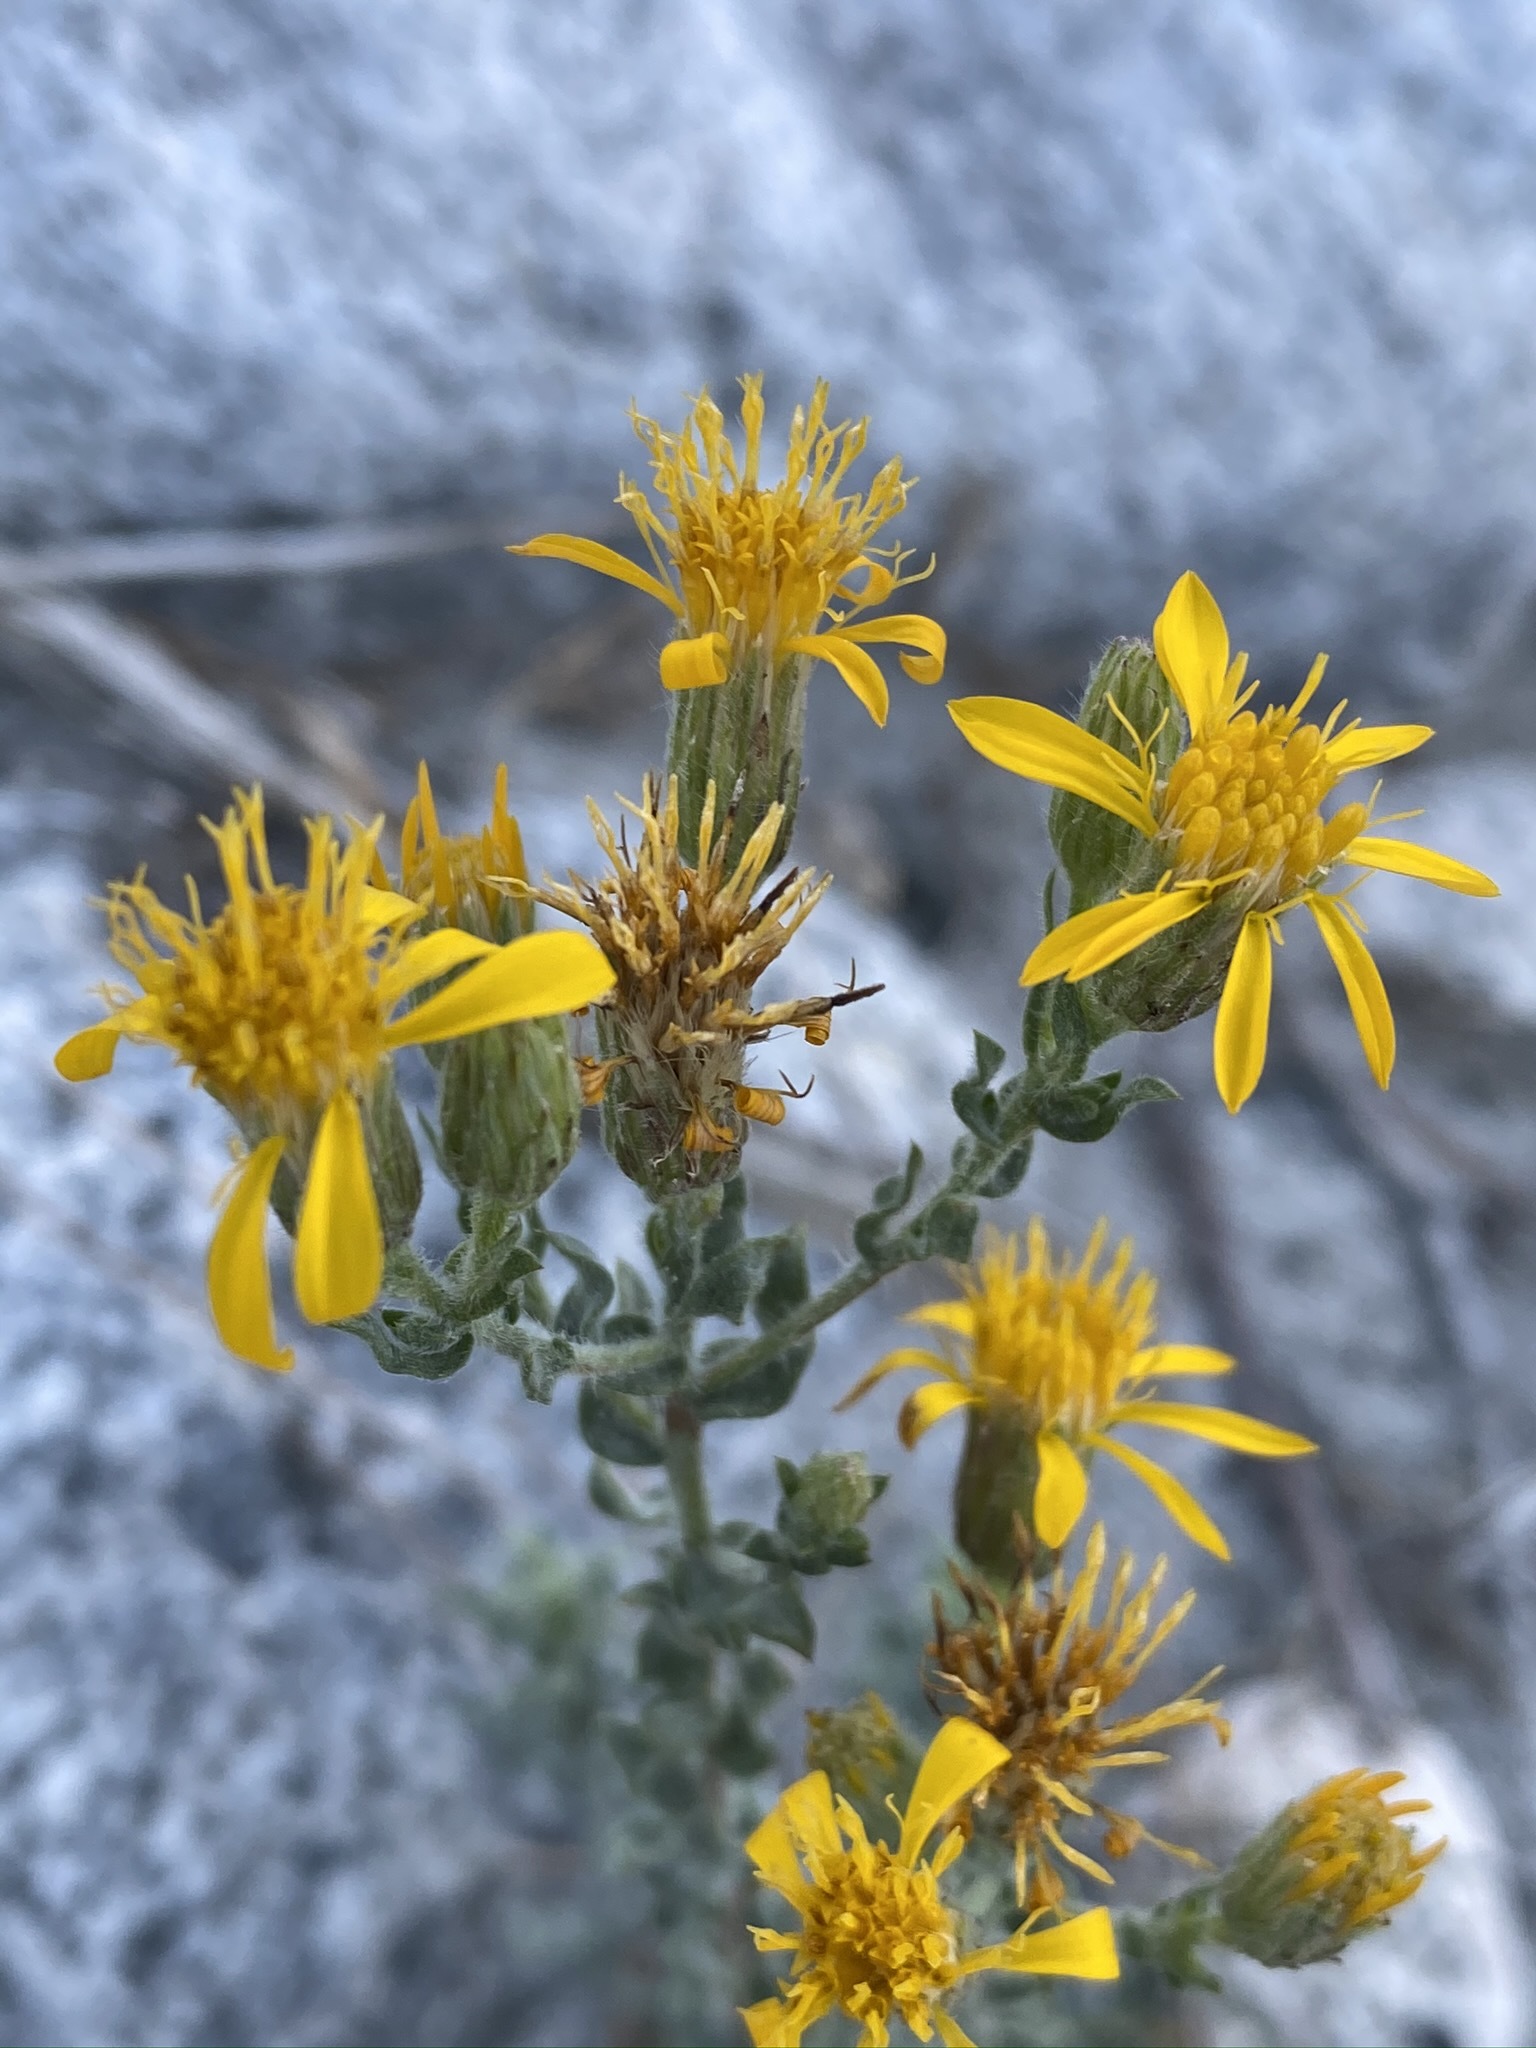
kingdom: Plantae
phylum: Tracheophyta
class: Magnoliopsida
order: Asterales
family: Asteraceae
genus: Heterotheca
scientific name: Heterotheca fastigiata
